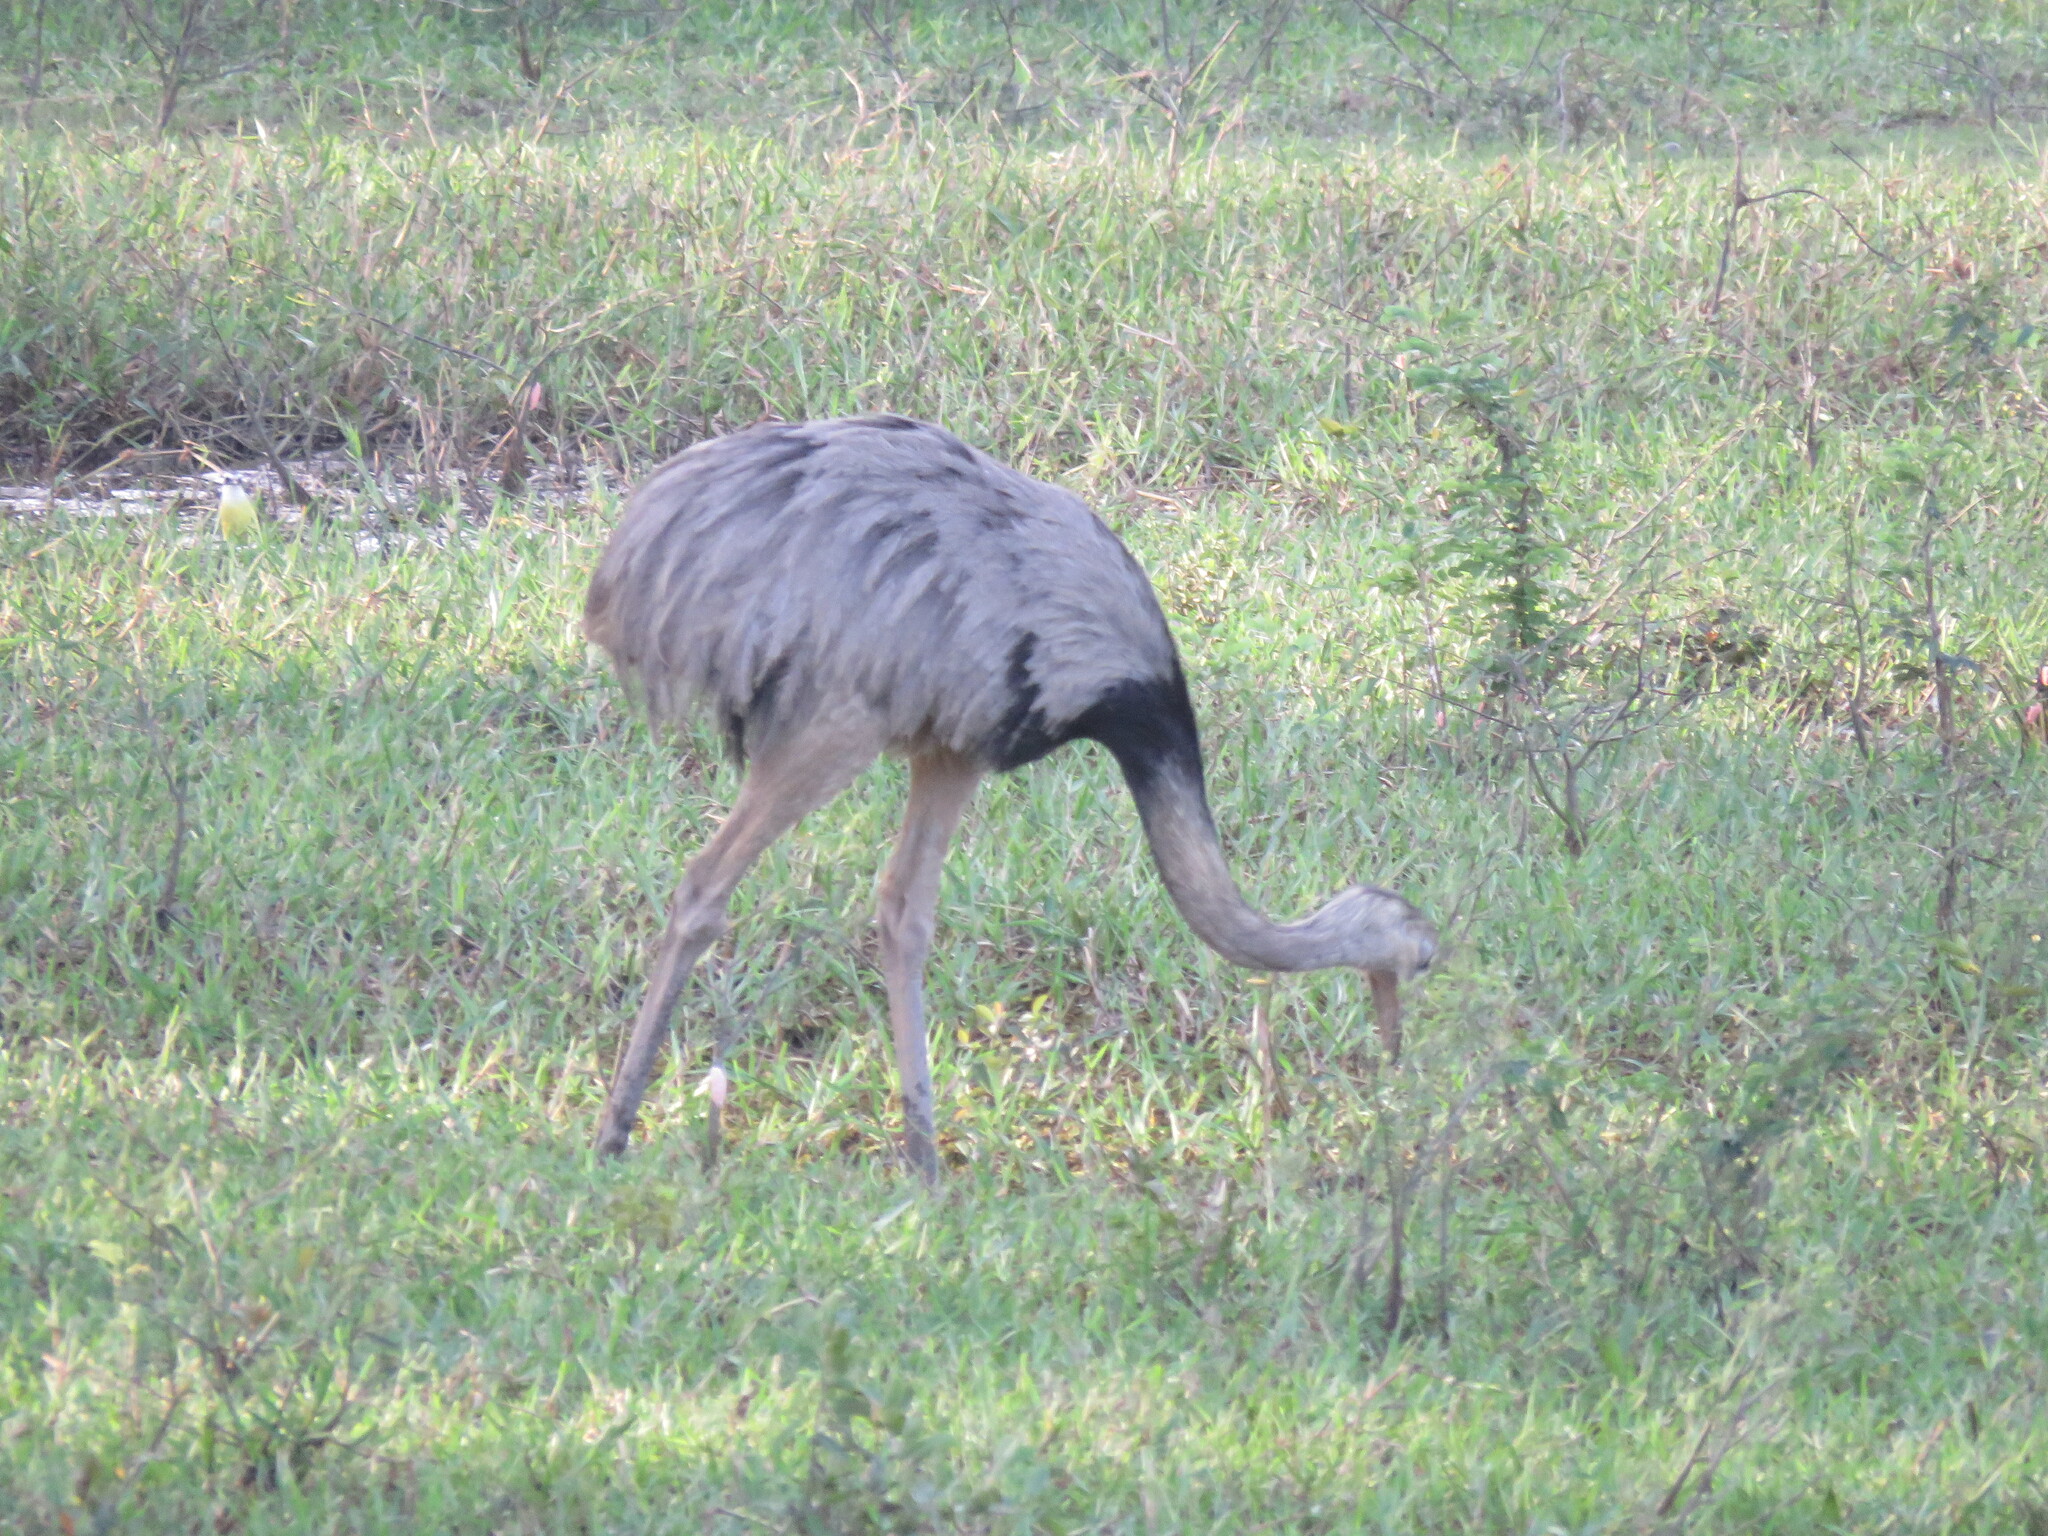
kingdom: Animalia
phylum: Chordata
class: Aves
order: Rheiformes
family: Rheidae
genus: Rhea
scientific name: Rhea americana
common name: Greater rhea
